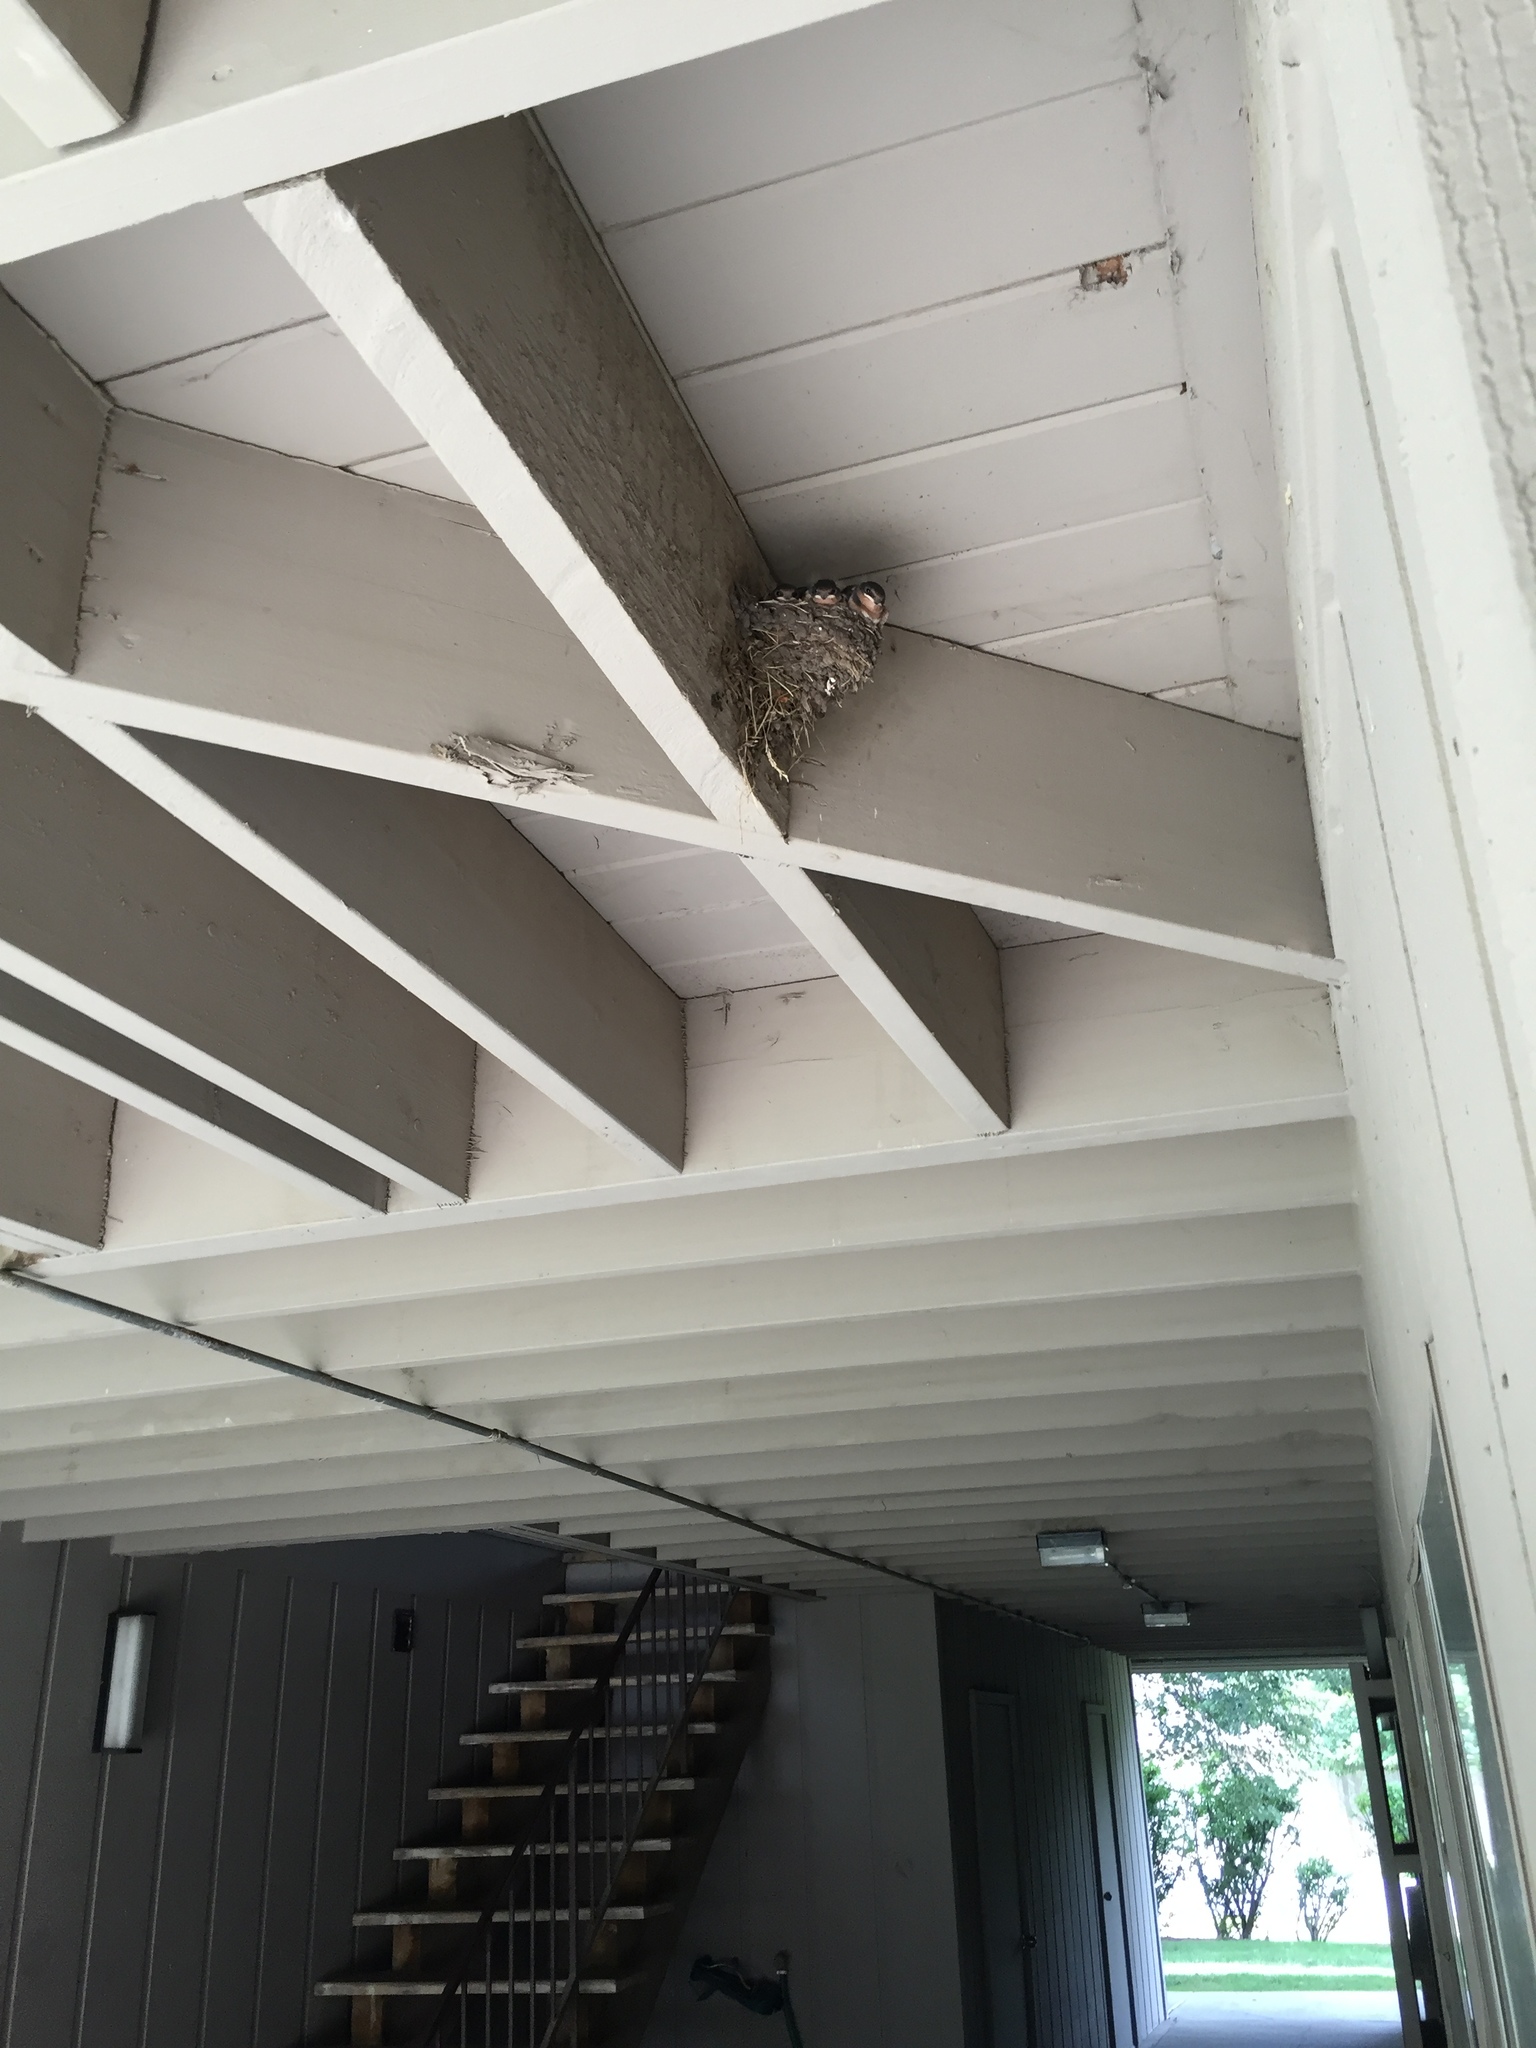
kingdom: Animalia
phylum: Chordata
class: Aves
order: Passeriformes
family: Hirundinidae
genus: Hirundo
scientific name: Hirundo rustica
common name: Barn swallow
